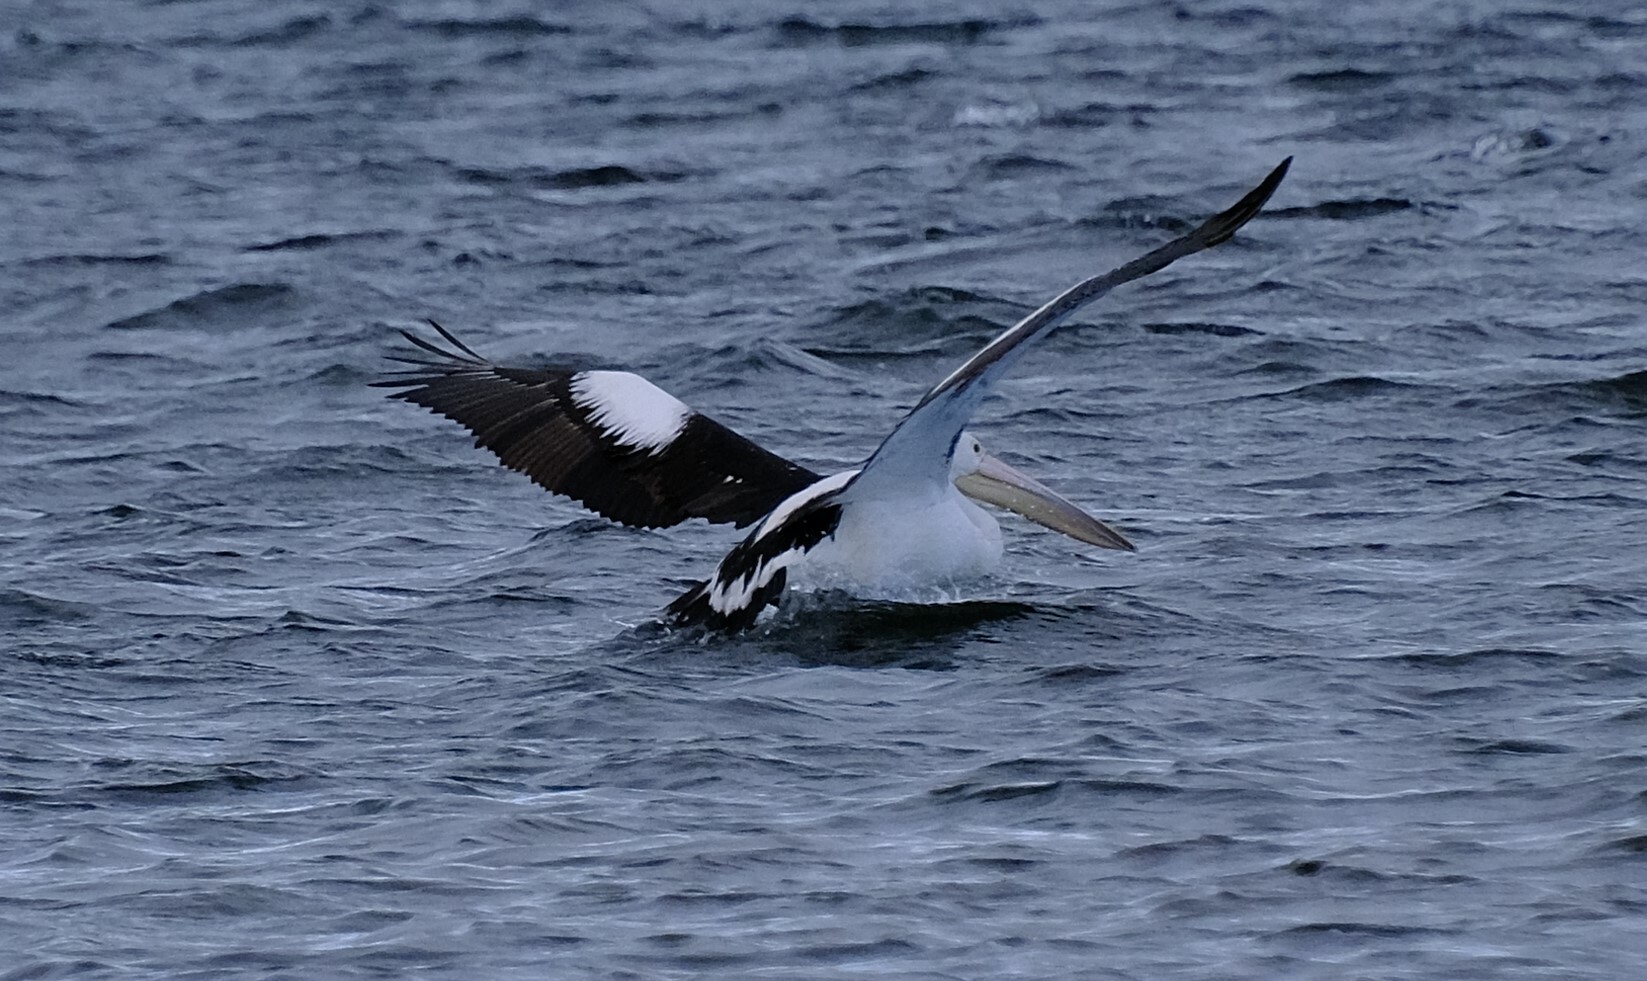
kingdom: Animalia
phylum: Chordata
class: Aves
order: Pelecaniformes
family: Pelecanidae
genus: Pelecanus
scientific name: Pelecanus conspicillatus
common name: Australian pelican
